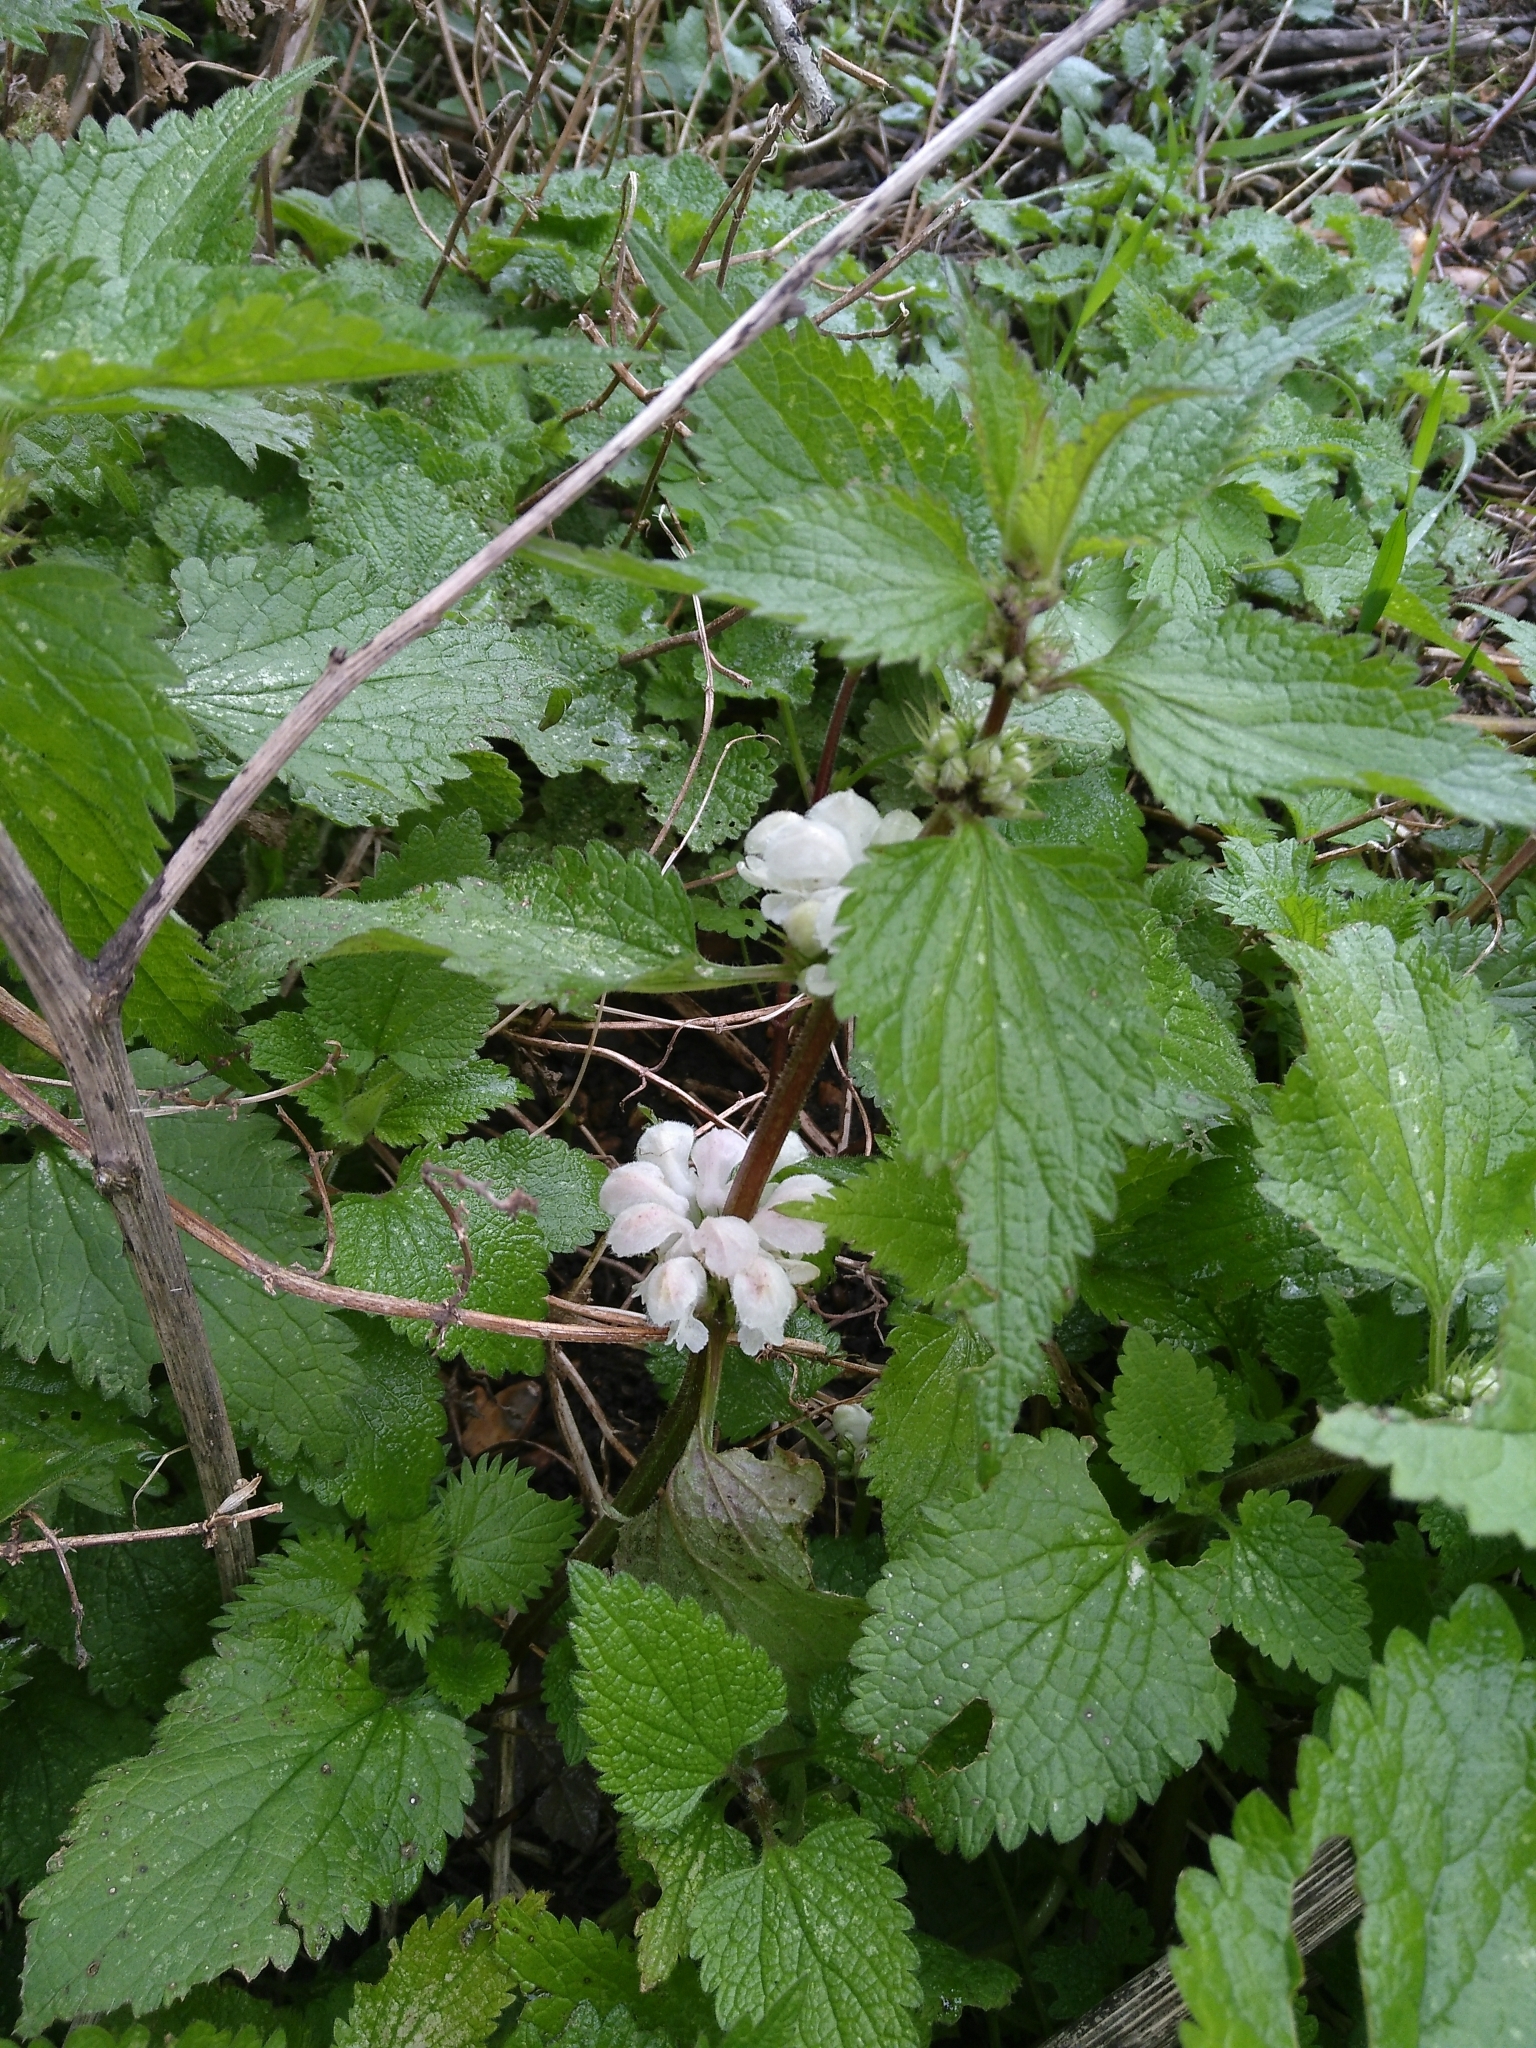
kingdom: Plantae
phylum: Tracheophyta
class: Magnoliopsida
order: Lamiales
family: Lamiaceae
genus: Lamium
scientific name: Lamium album
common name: White dead-nettle
